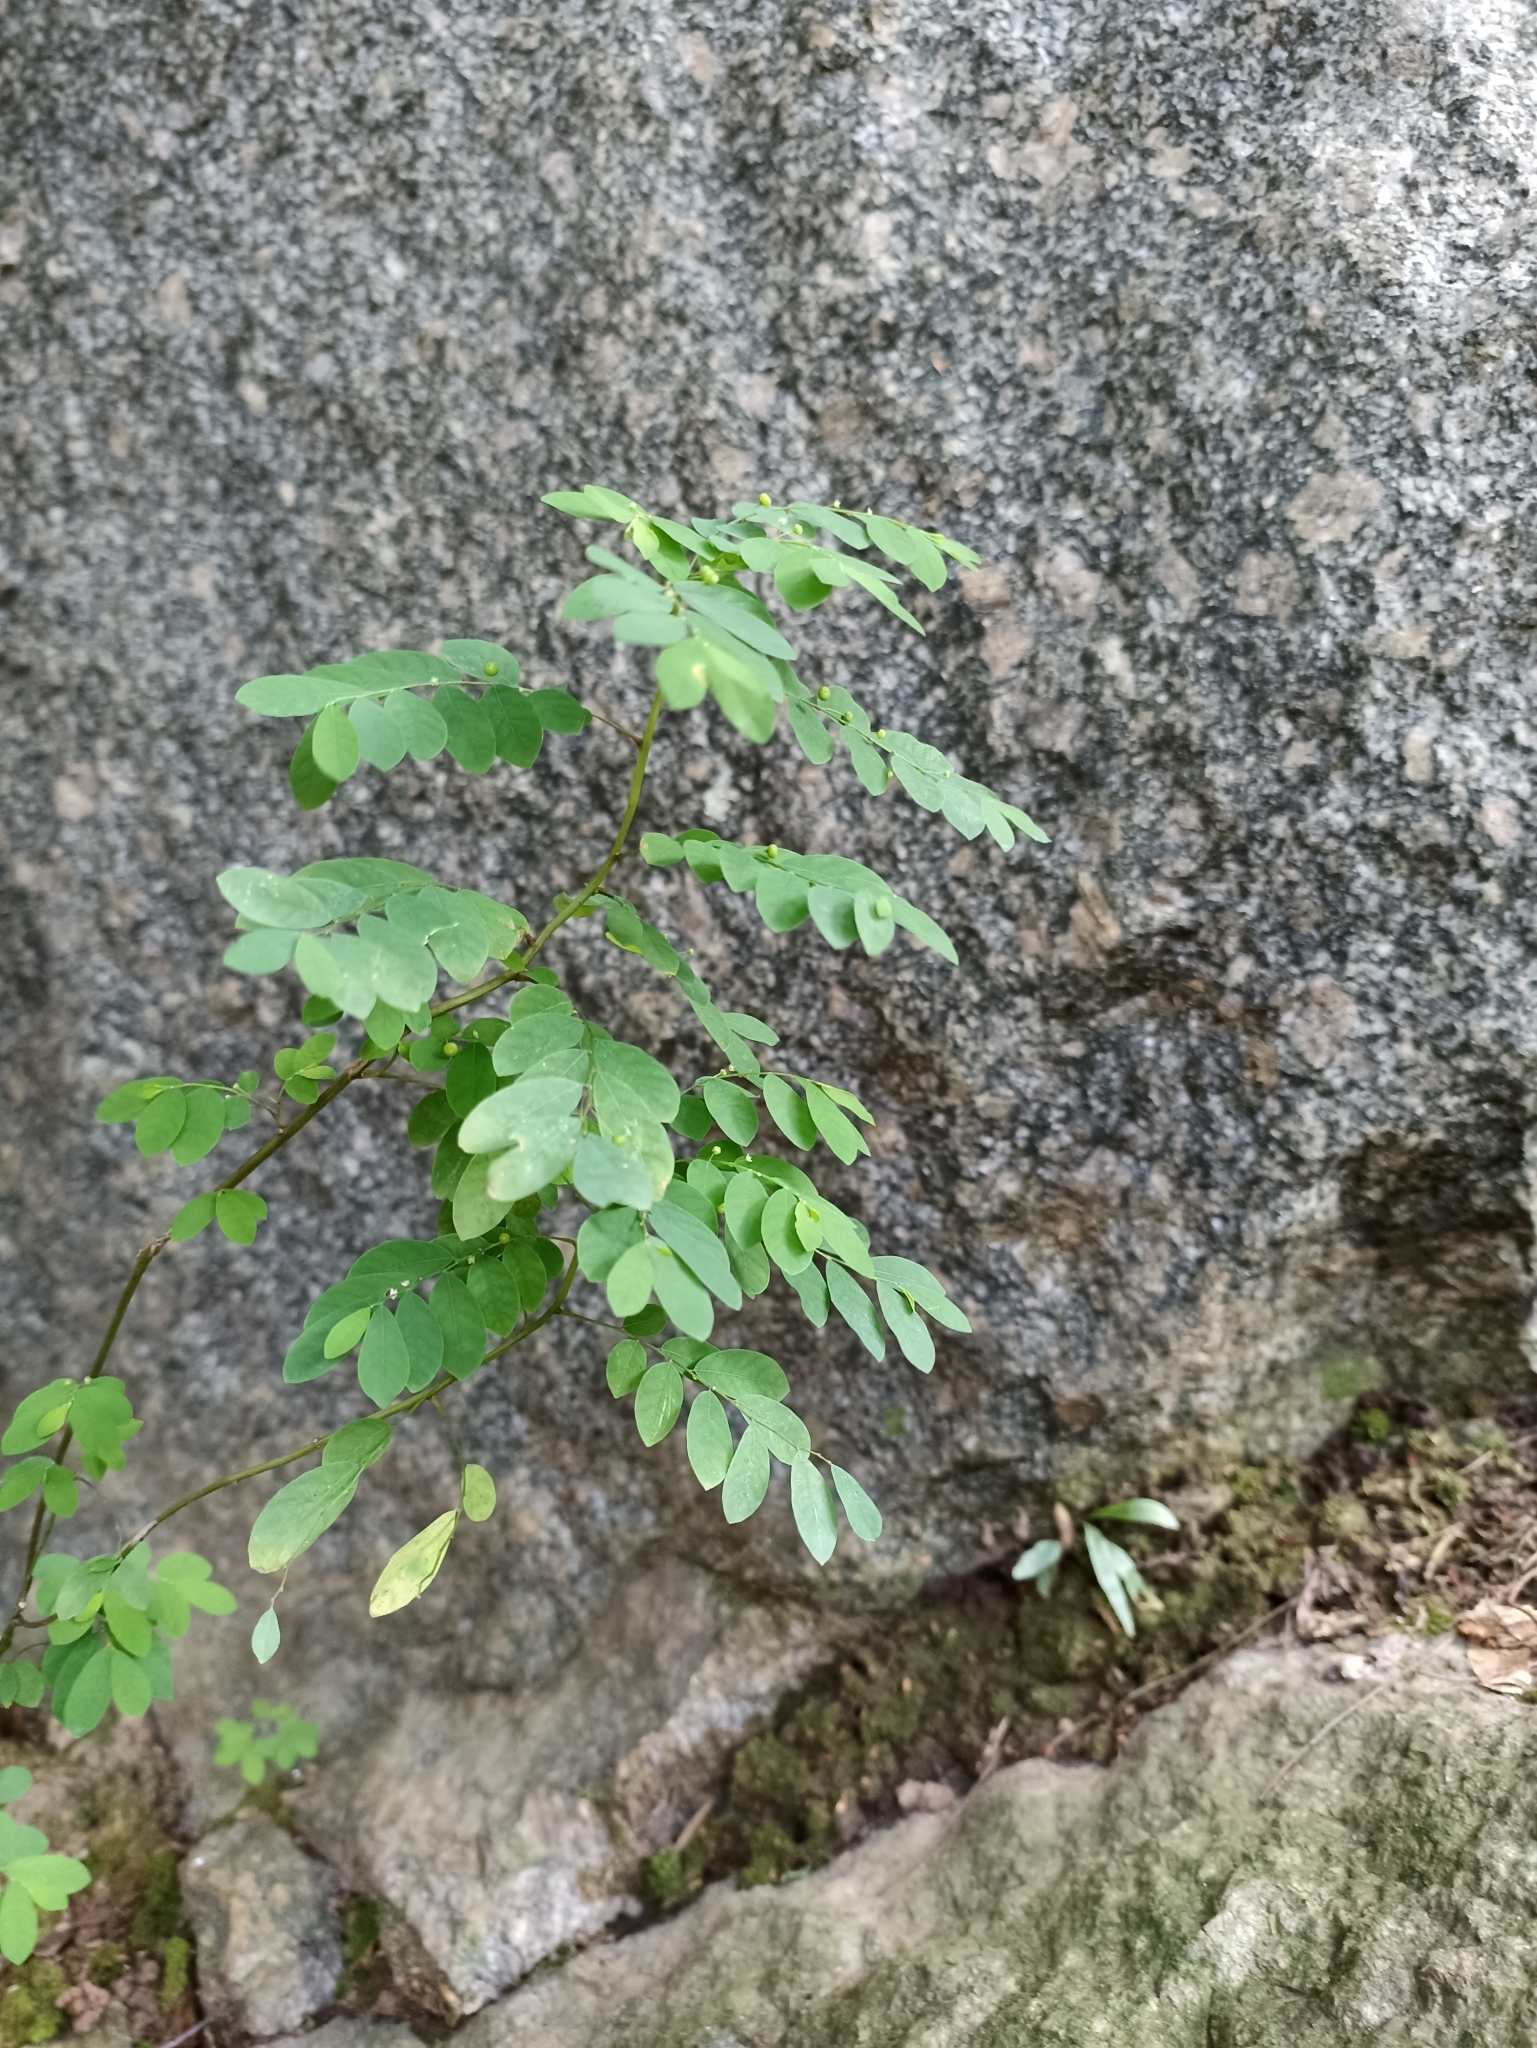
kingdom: Plantae
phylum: Tracheophyta
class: Magnoliopsida
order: Malpighiales
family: Phyllanthaceae
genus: Phyllanthus
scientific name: Phyllanthus tenellus
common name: Mascarene island leaf-flower
